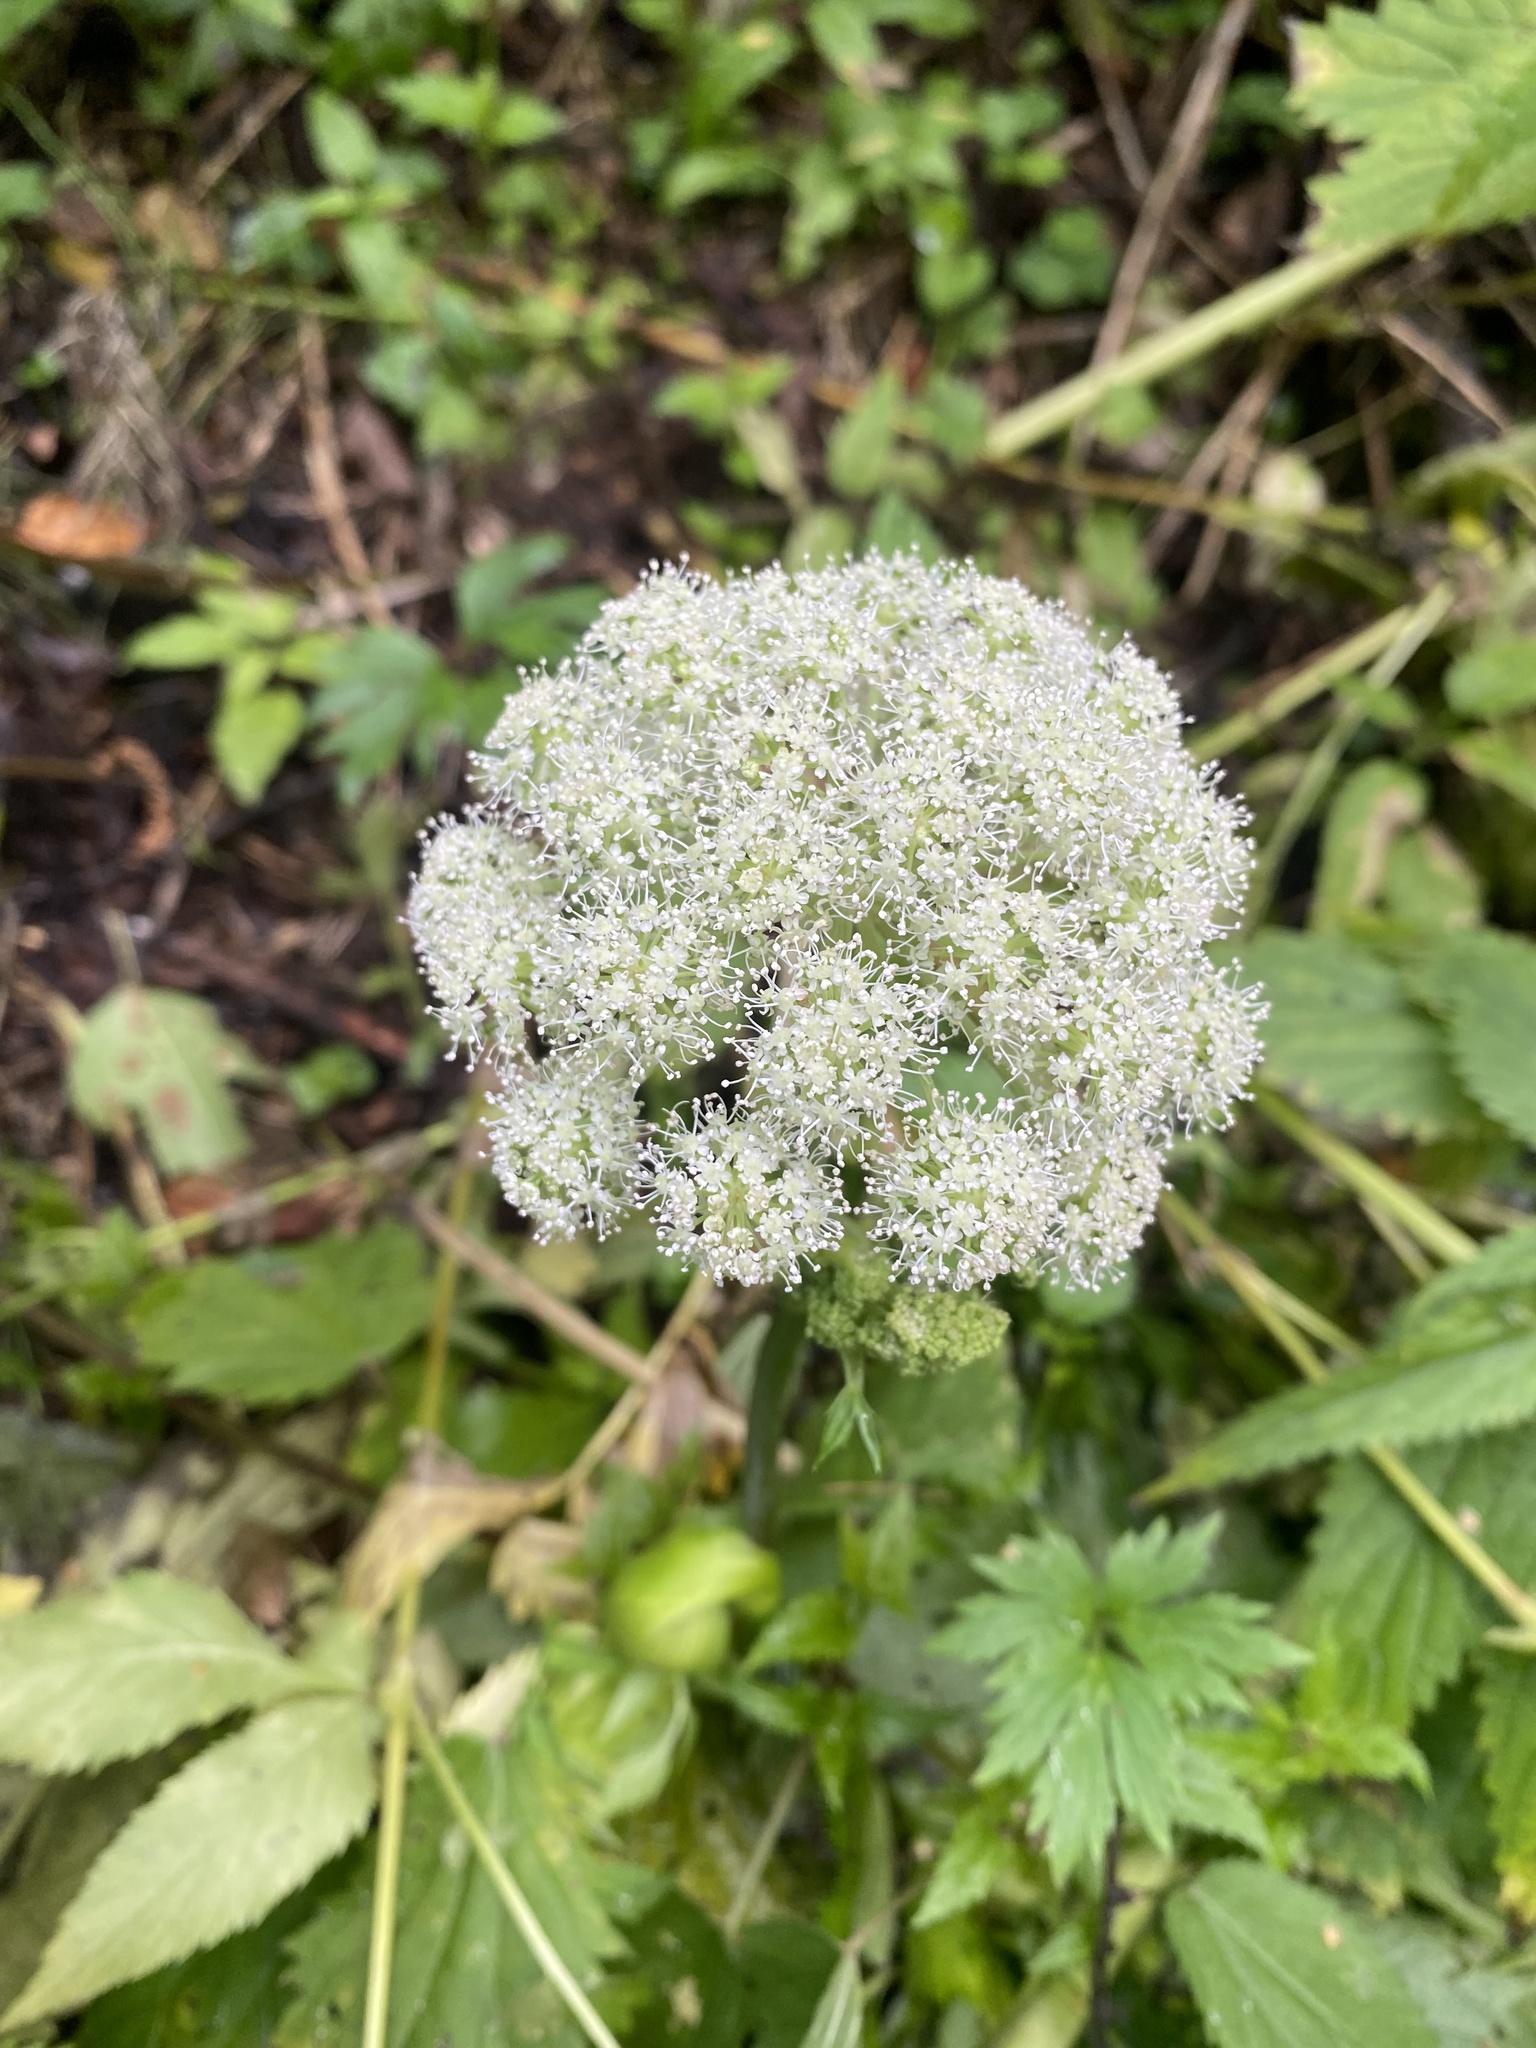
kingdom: Plantae
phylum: Tracheophyta
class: Magnoliopsida
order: Apiales
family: Apiaceae
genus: Angelica
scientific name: Angelica sylvestris
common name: Wild angelica
